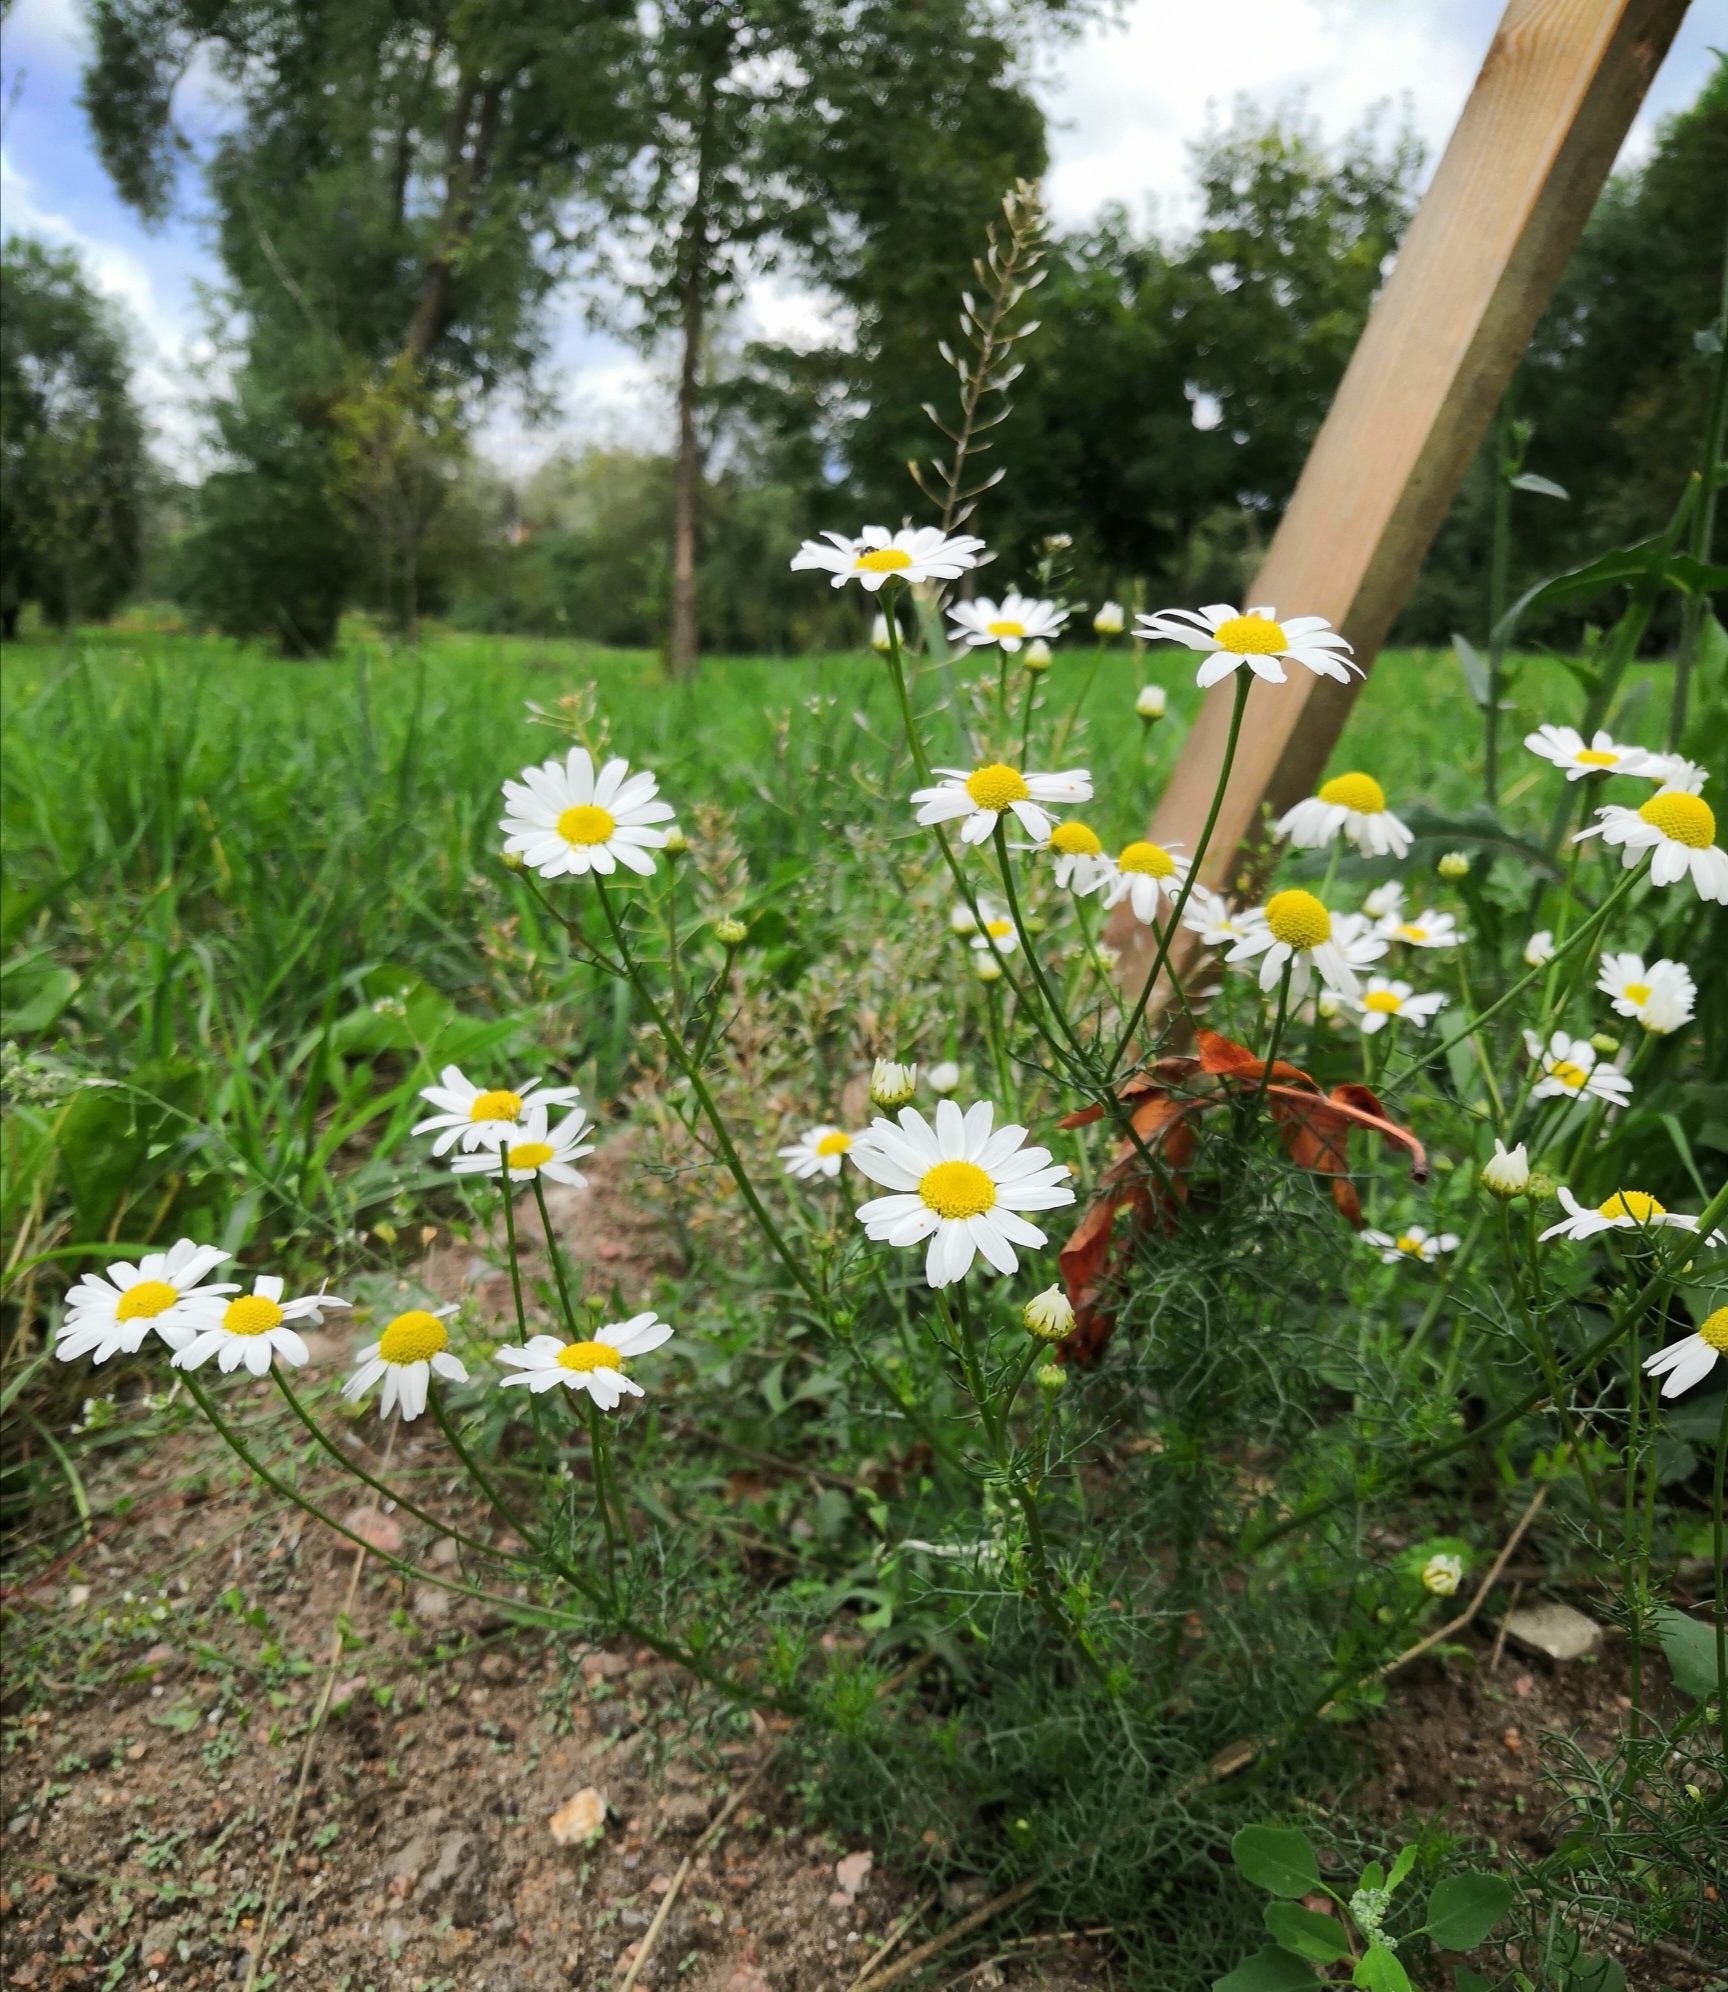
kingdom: Plantae
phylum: Tracheophyta
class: Magnoliopsida
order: Asterales
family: Asteraceae
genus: Tripleurospermum
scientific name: Tripleurospermum inodorum
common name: Scentless mayweed
